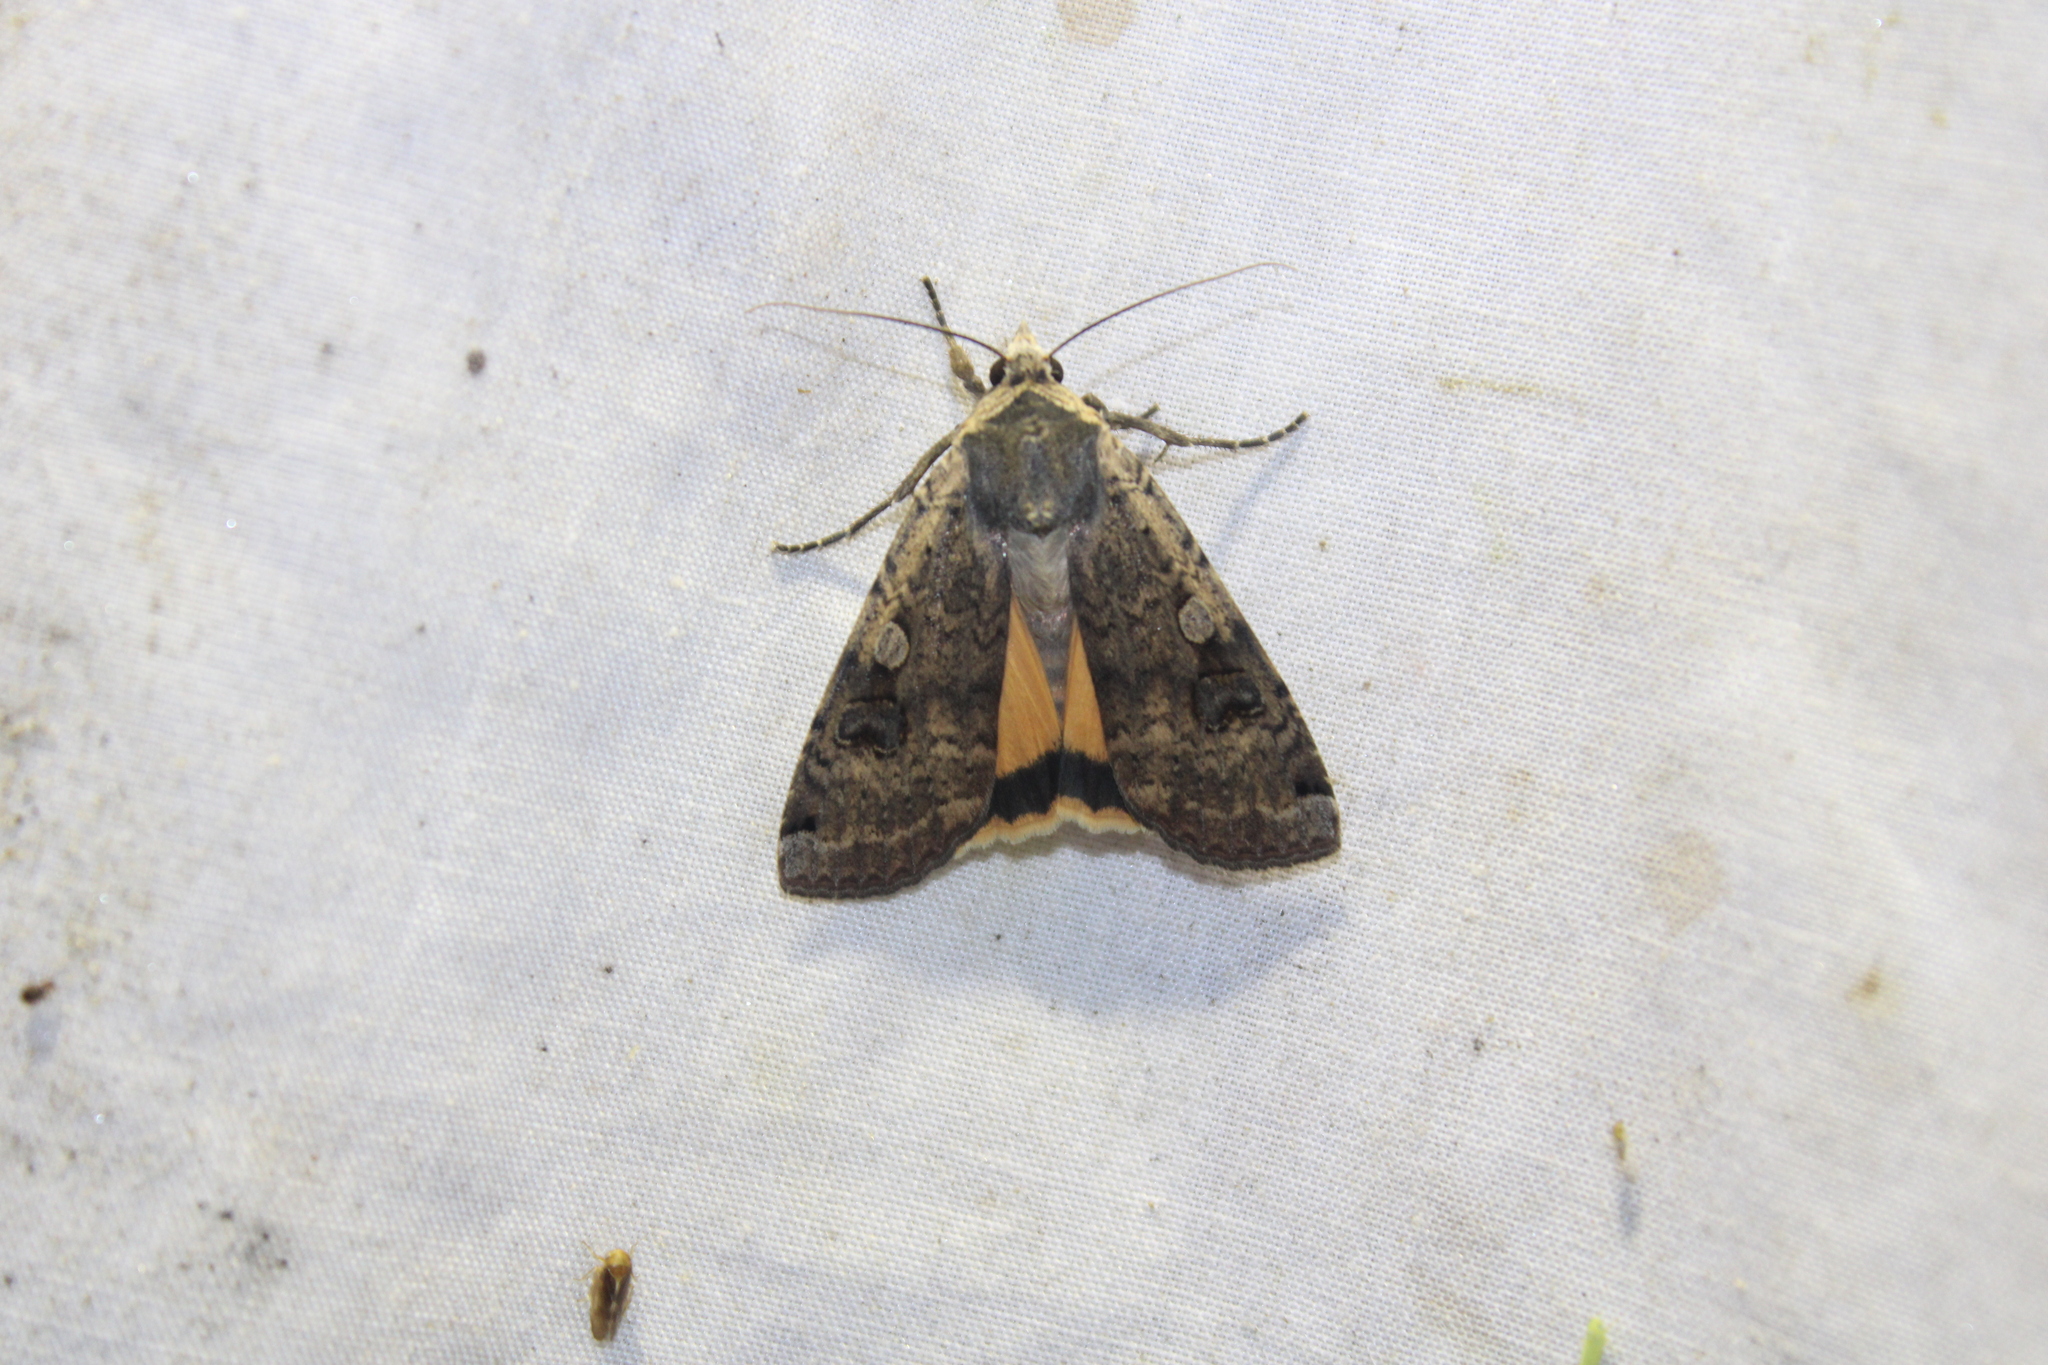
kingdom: Animalia
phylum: Arthropoda
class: Insecta
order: Lepidoptera
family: Noctuidae
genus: Noctua
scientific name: Noctua pronuba
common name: Large yellow underwing
